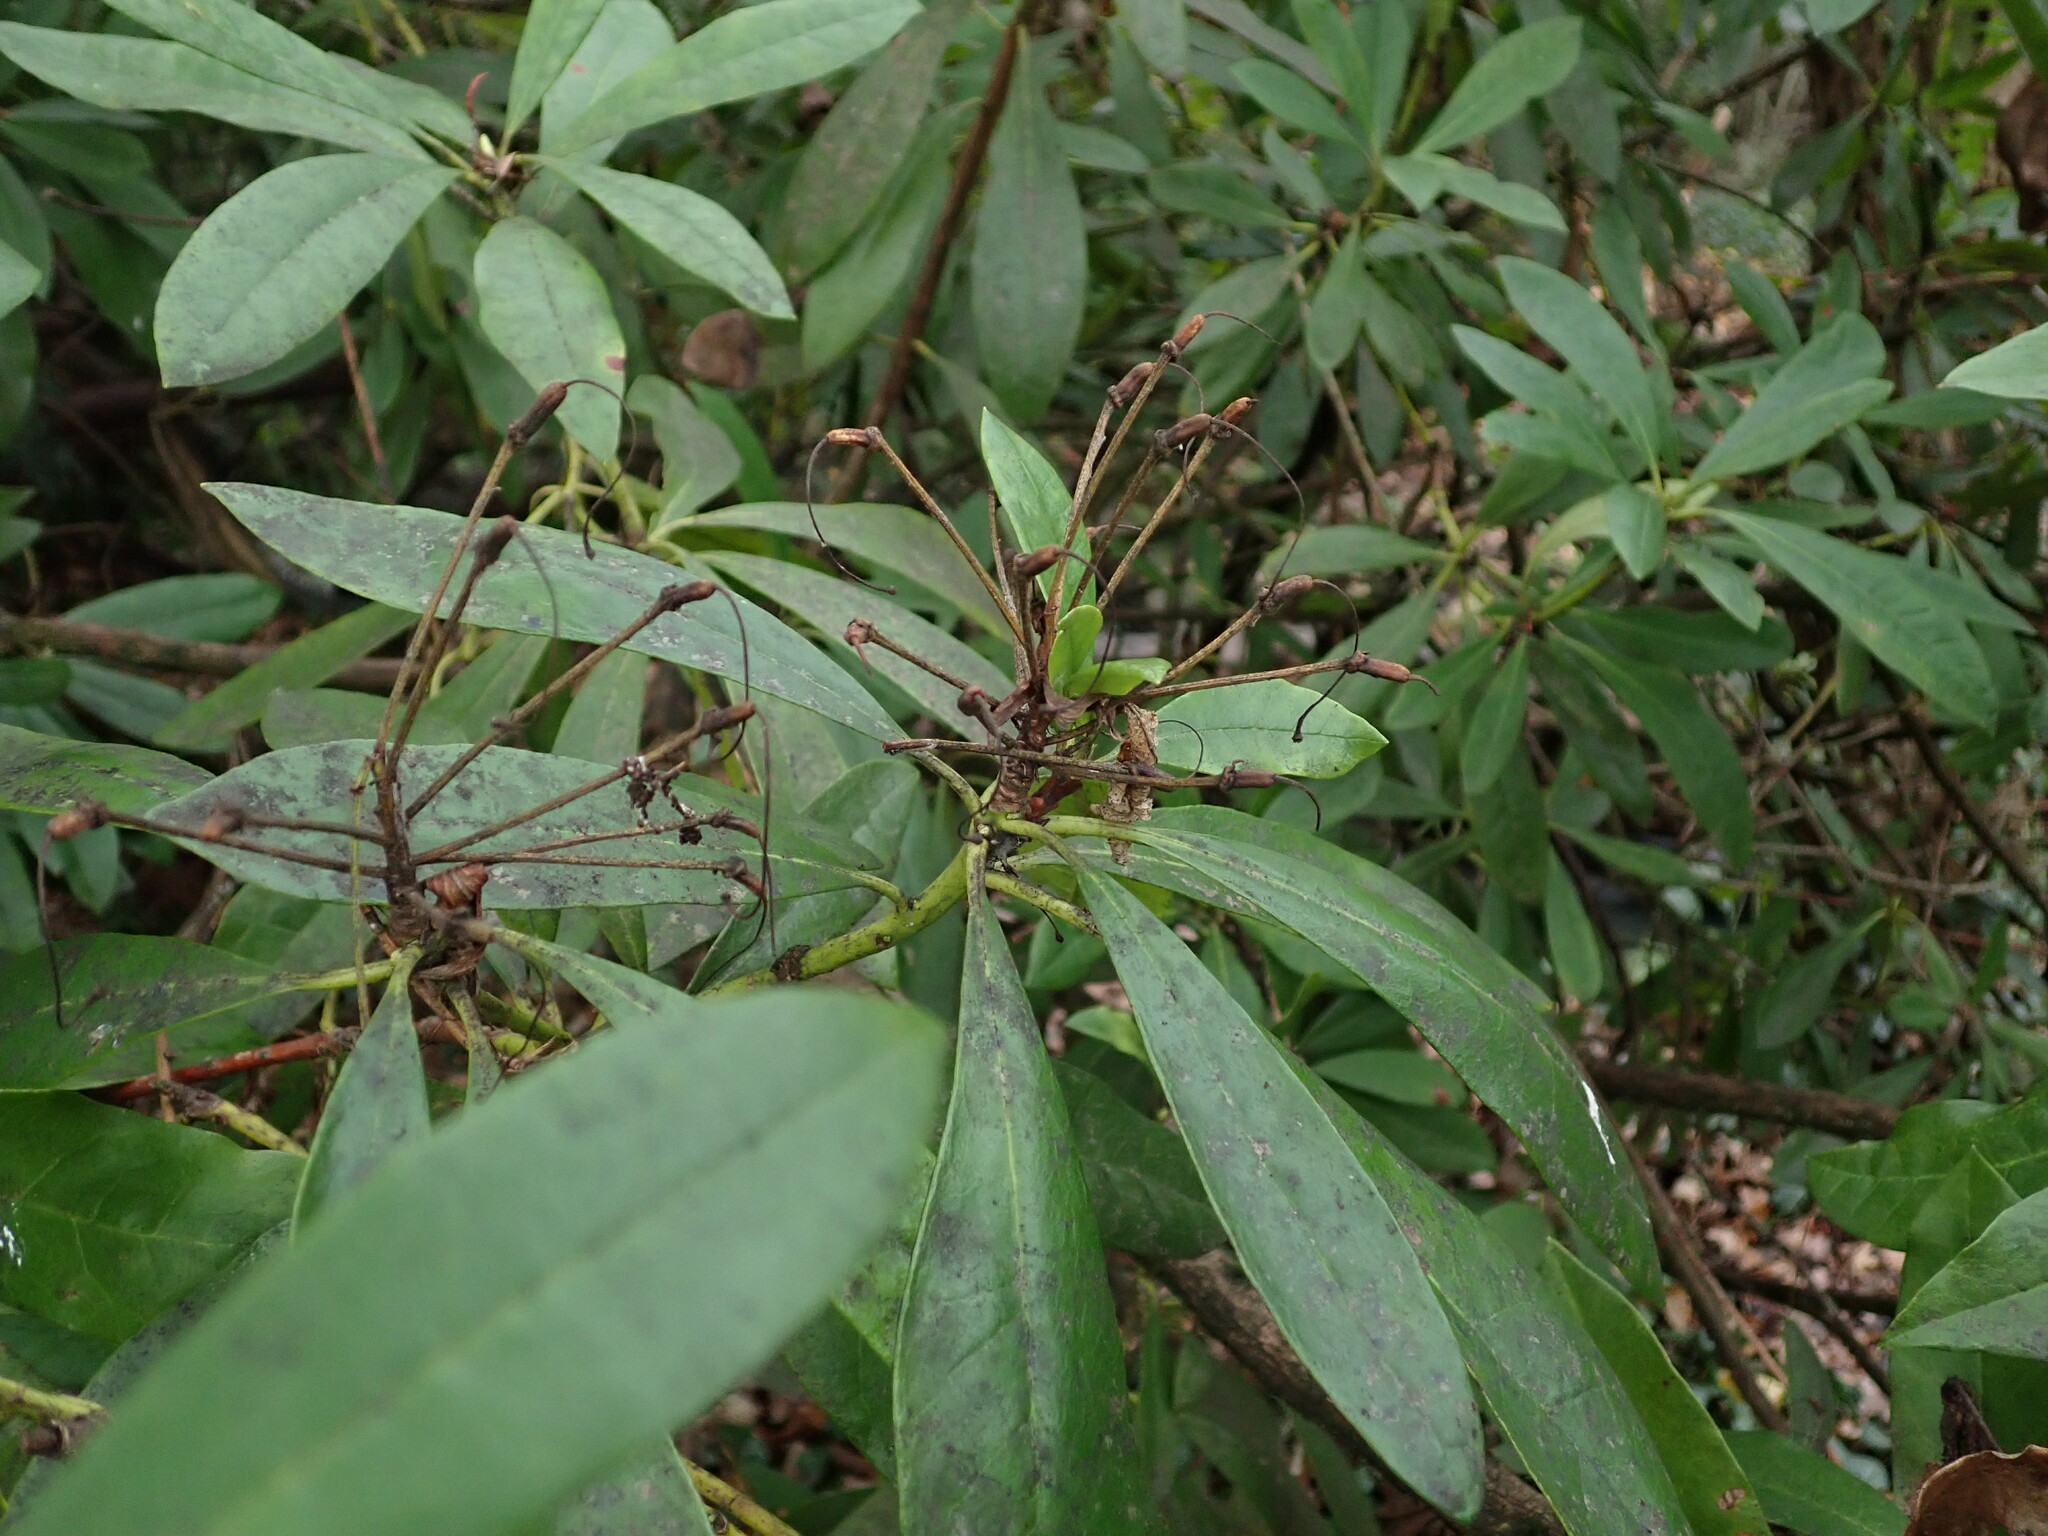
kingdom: Plantae
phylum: Tracheophyta
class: Magnoliopsida
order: Ericales
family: Ericaceae
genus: Rhododendron
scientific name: Rhododendron ponticum
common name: Rhododendron
